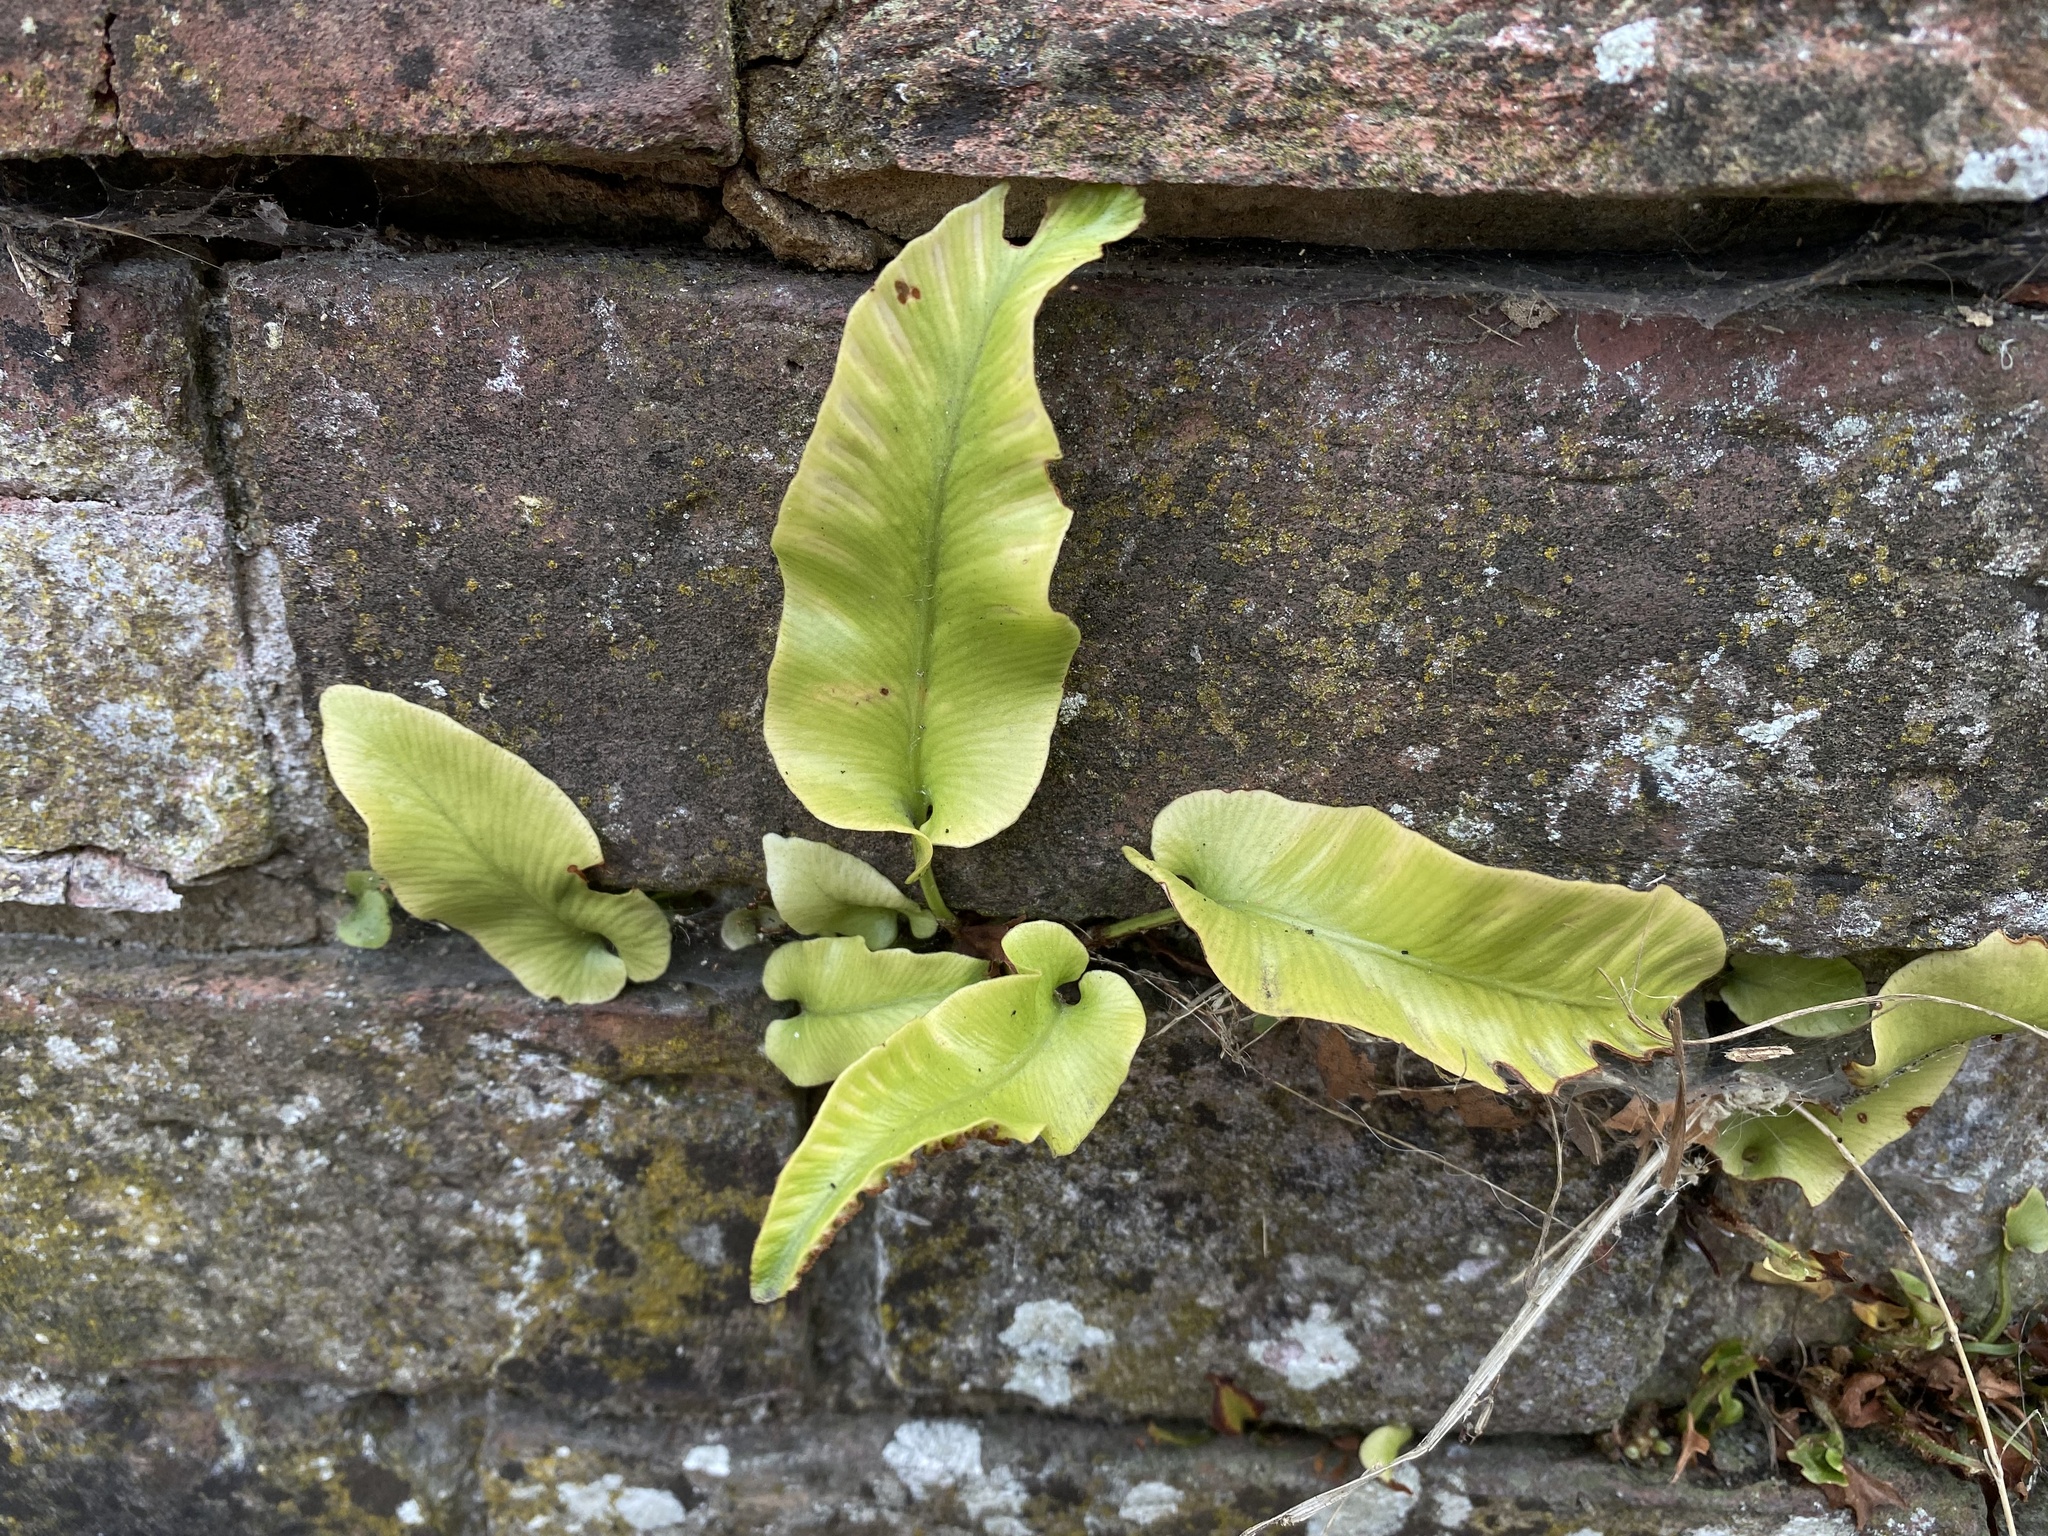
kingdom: Plantae
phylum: Tracheophyta
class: Polypodiopsida
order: Polypodiales
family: Aspleniaceae
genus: Asplenium
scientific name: Asplenium scolopendrium
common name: Hart's-tongue fern
